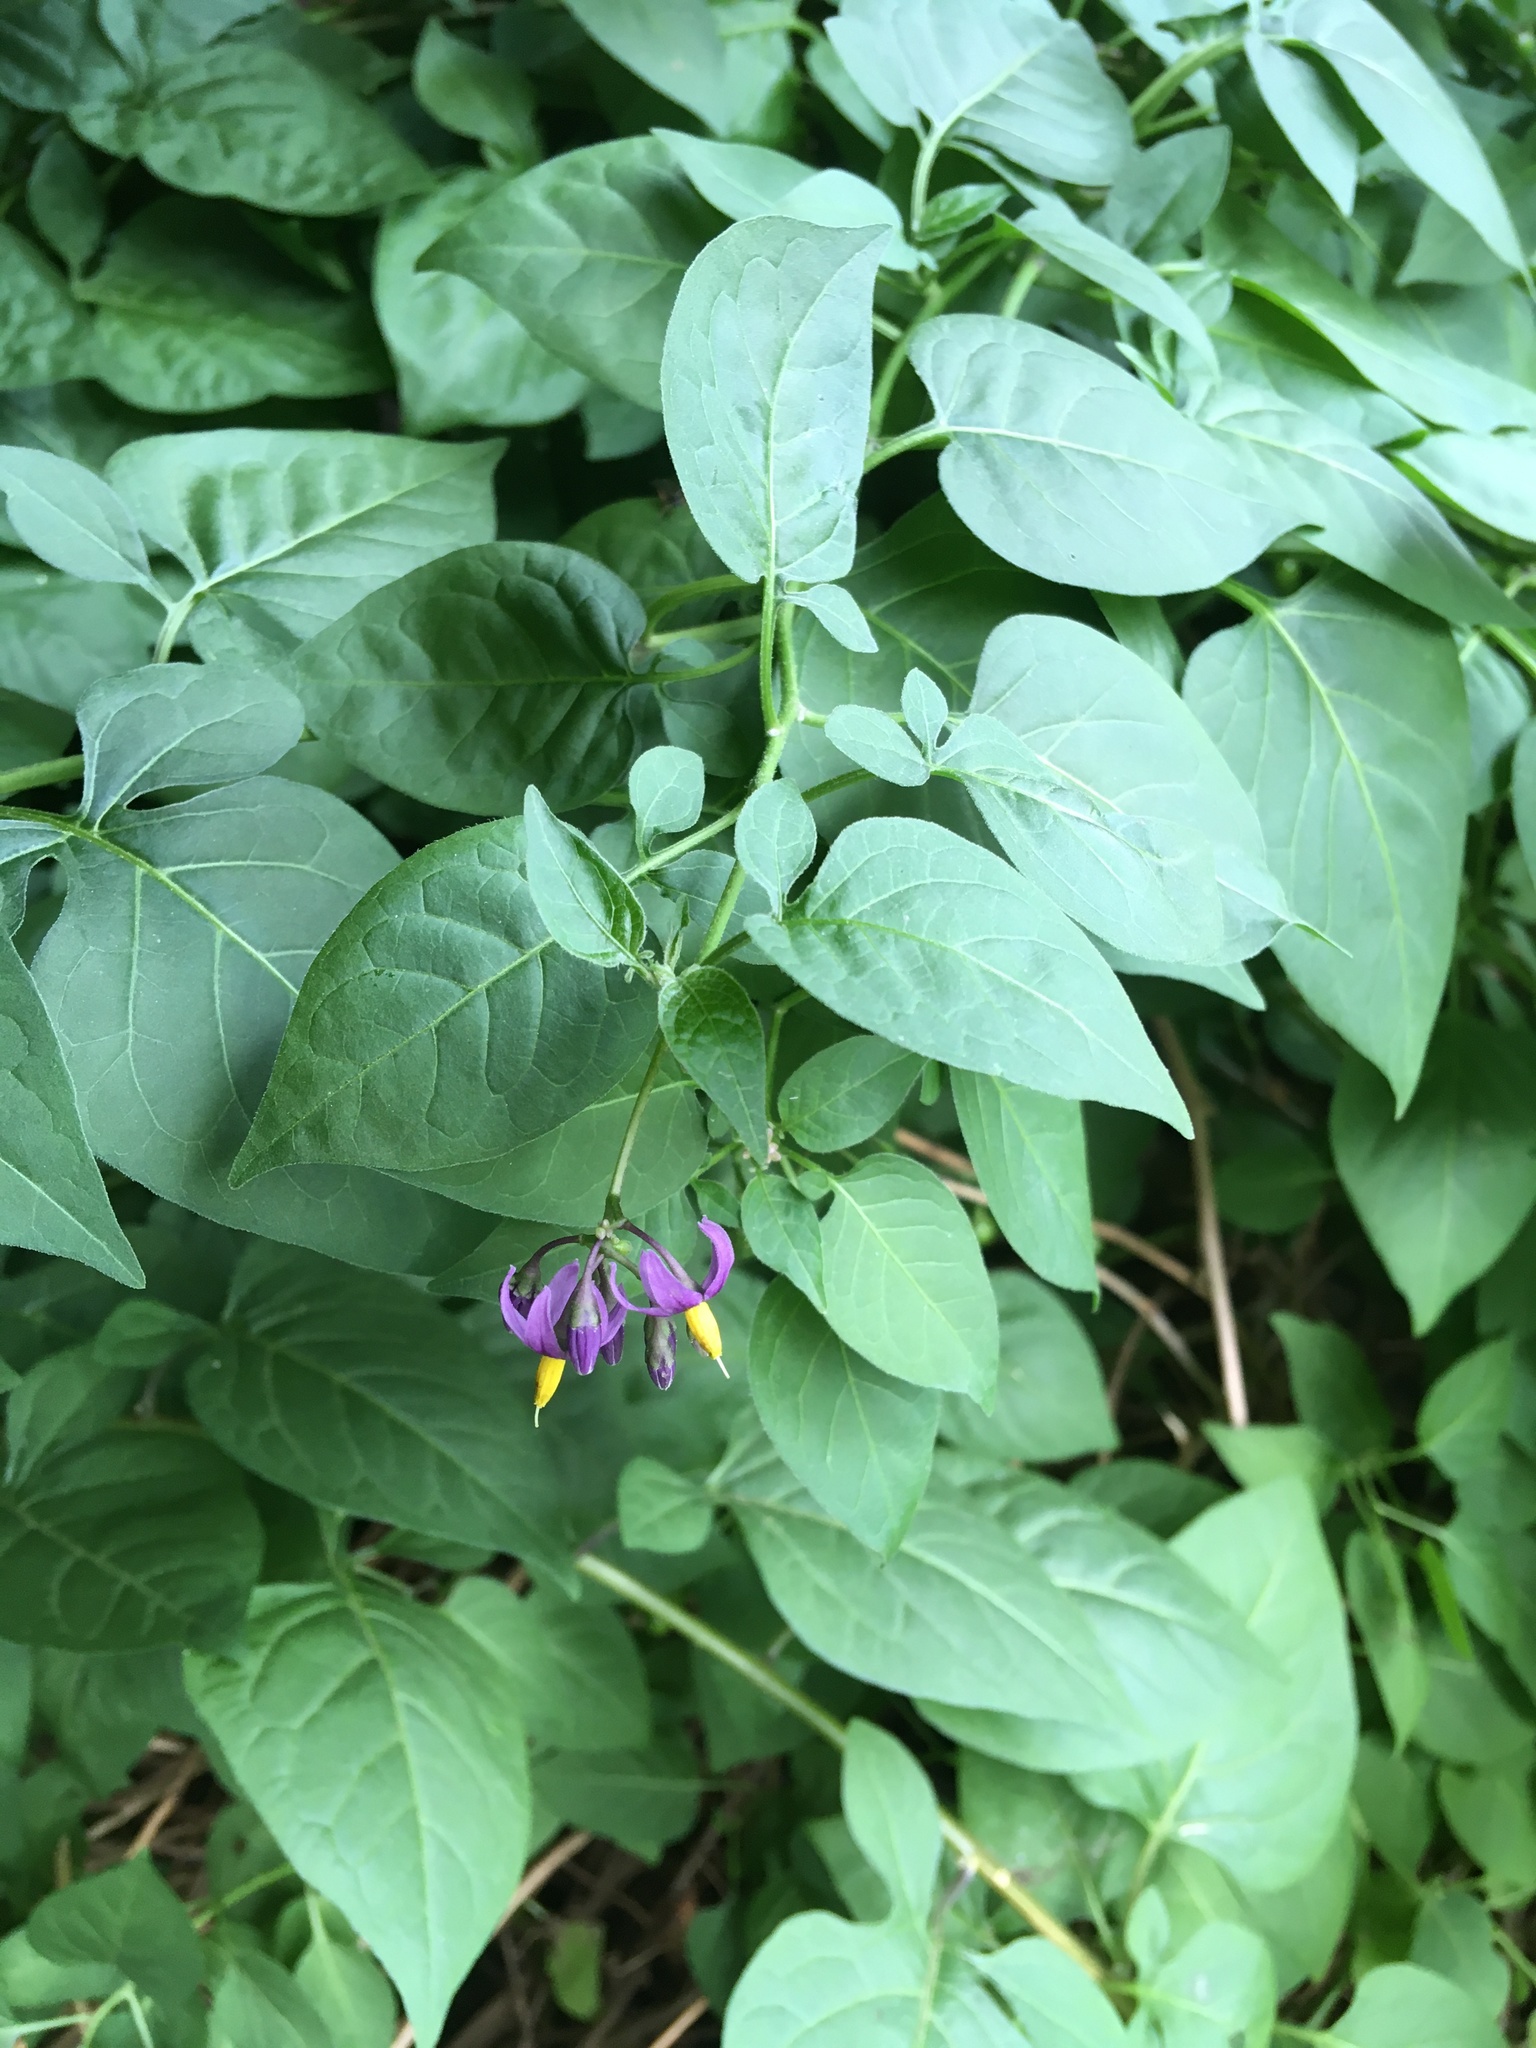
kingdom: Plantae
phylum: Tracheophyta
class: Magnoliopsida
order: Solanales
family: Solanaceae
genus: Solanum
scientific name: Solanum dulcamara
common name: Climbing nightshade
